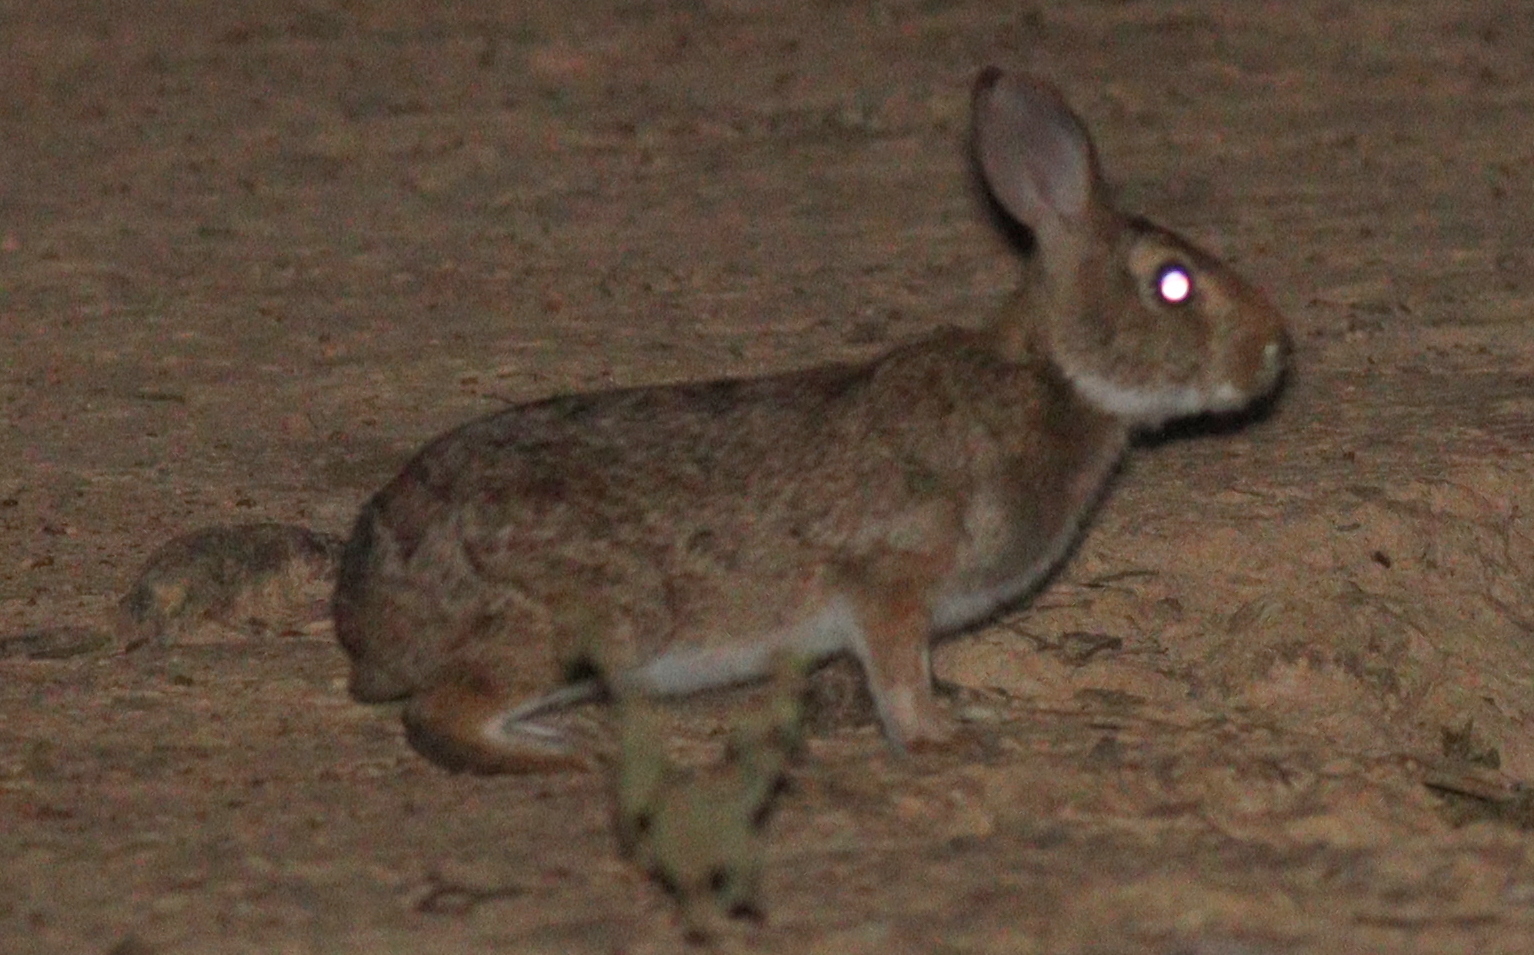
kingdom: Animalia
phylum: Chordata
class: Mammalia
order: Lagomorpha
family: Leporidae
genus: Sylvilagus
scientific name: Sylvilagus brasiliensis
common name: Tapeti
